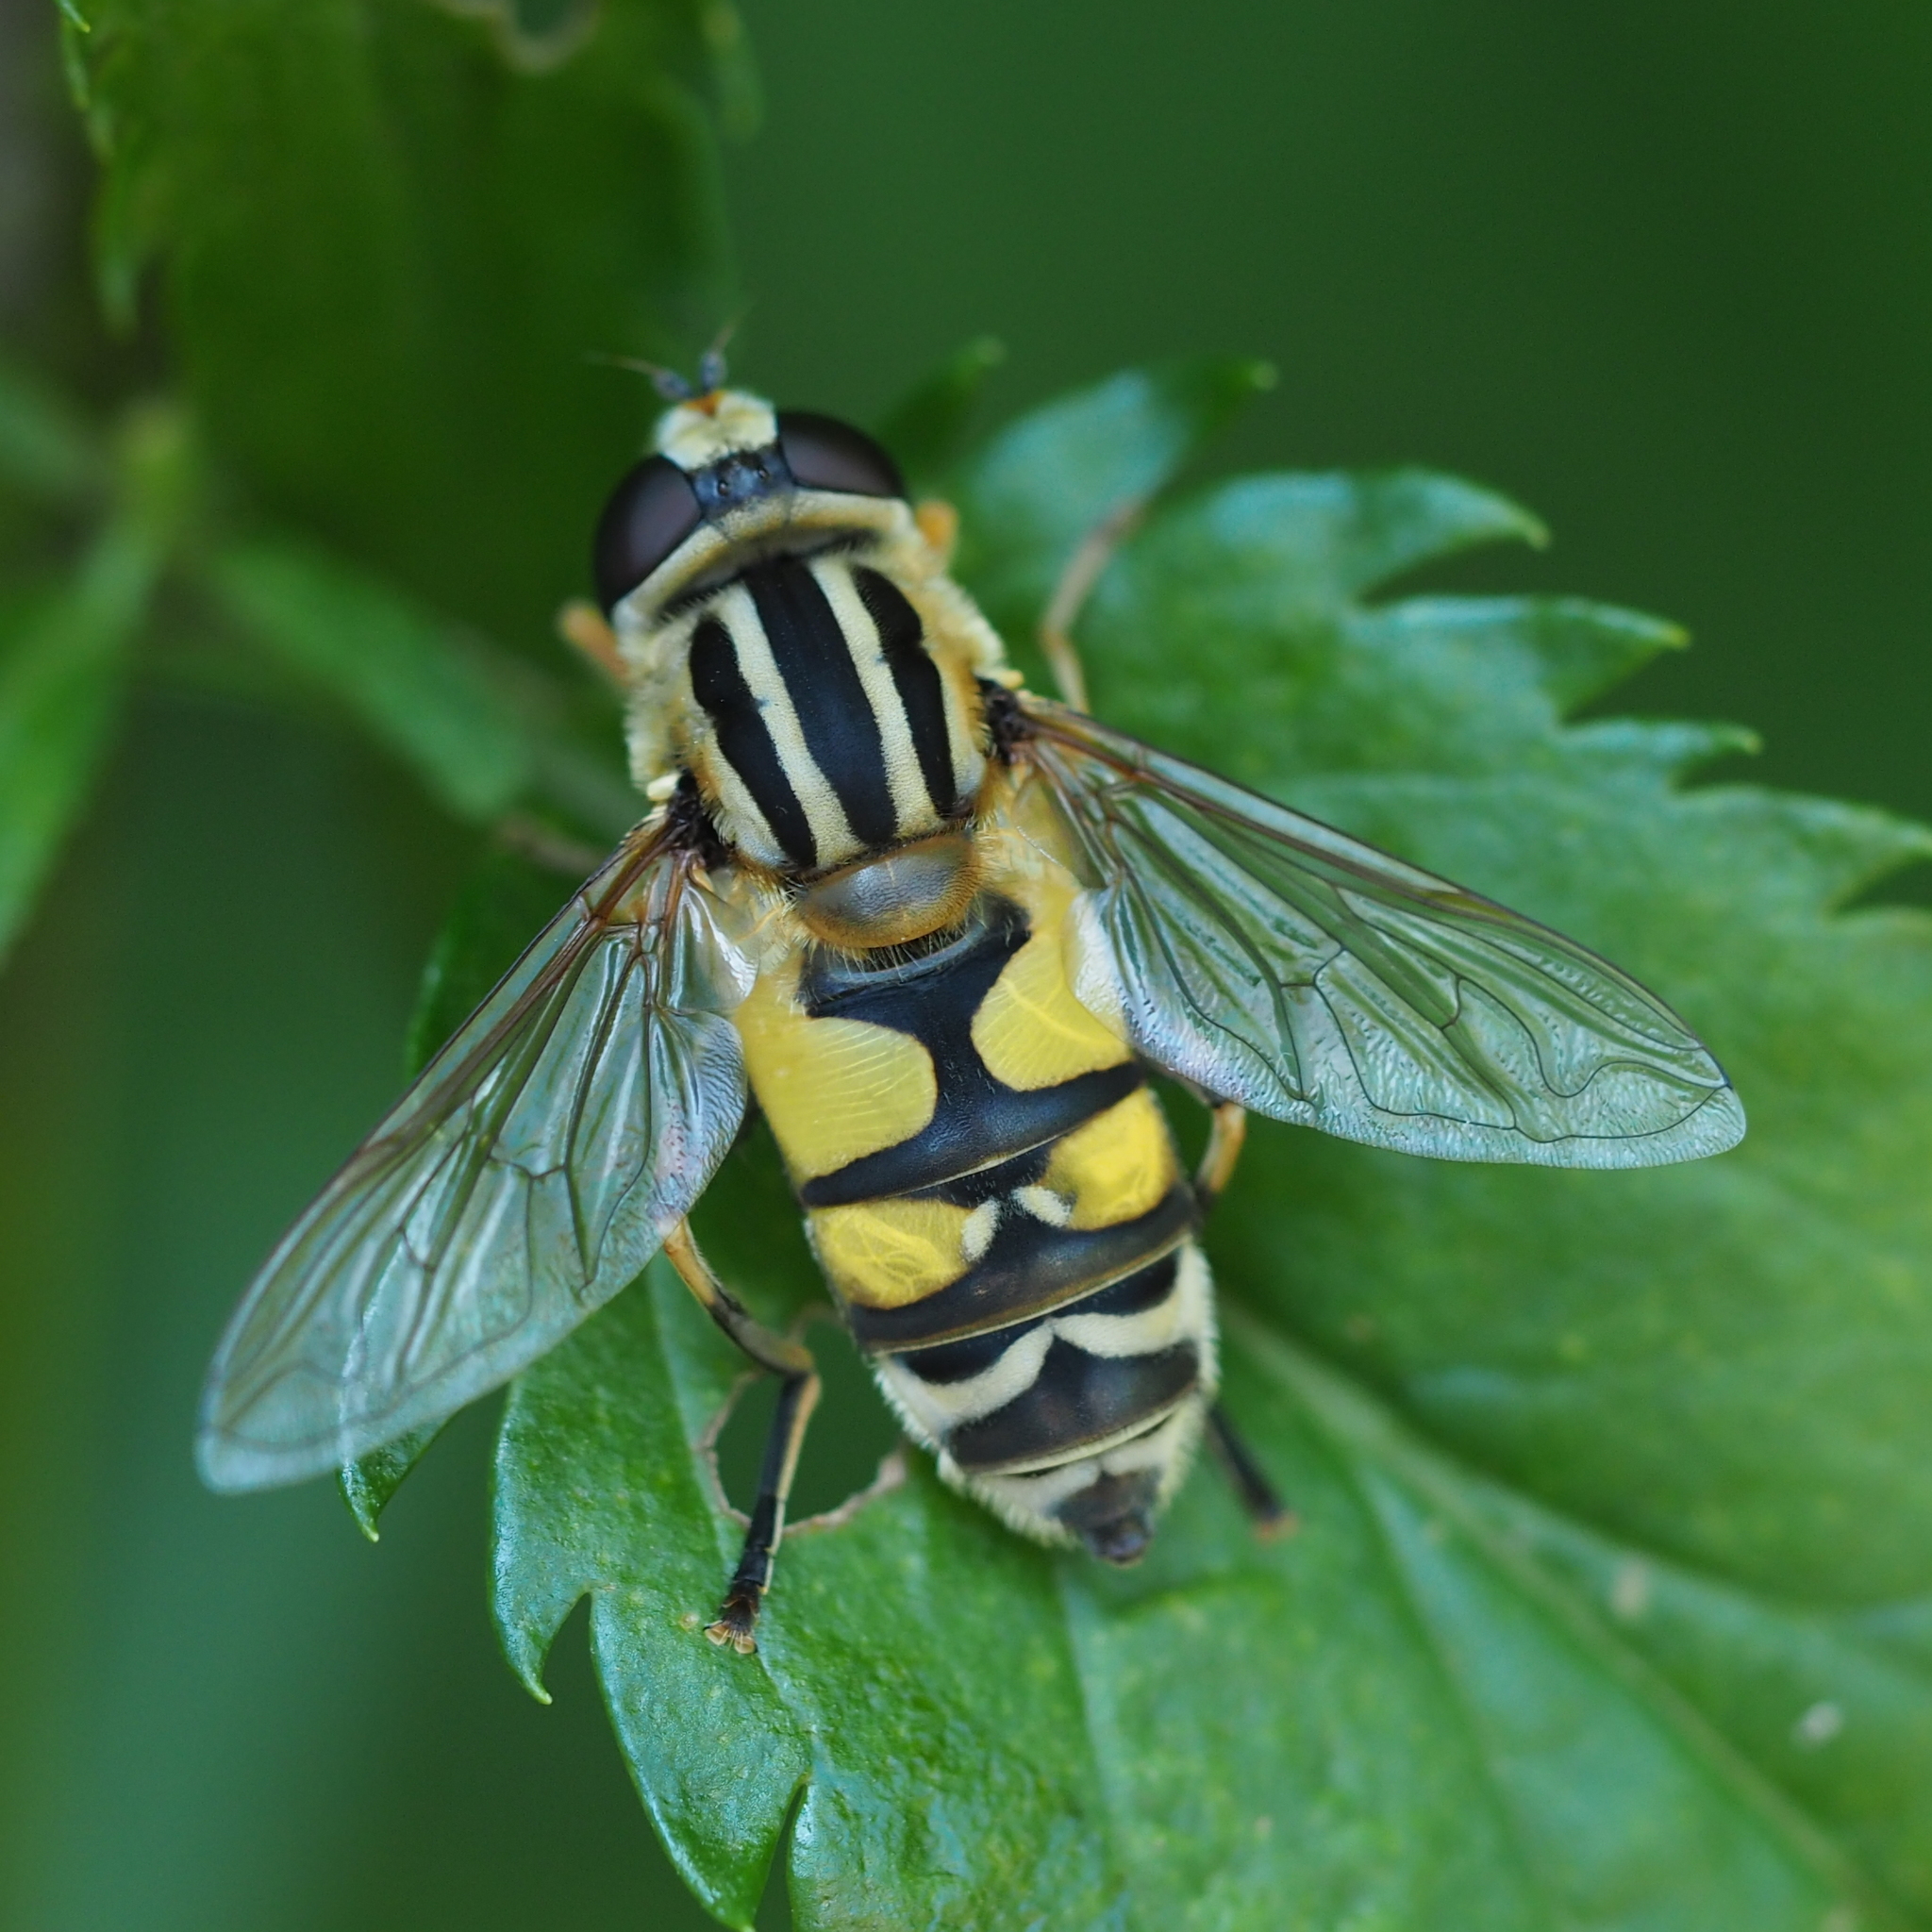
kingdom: Animalia
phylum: Arthropoda
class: Insecta
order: Diptera
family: Syrphidae
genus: Helophilus
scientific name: Helophilus trivittatus
